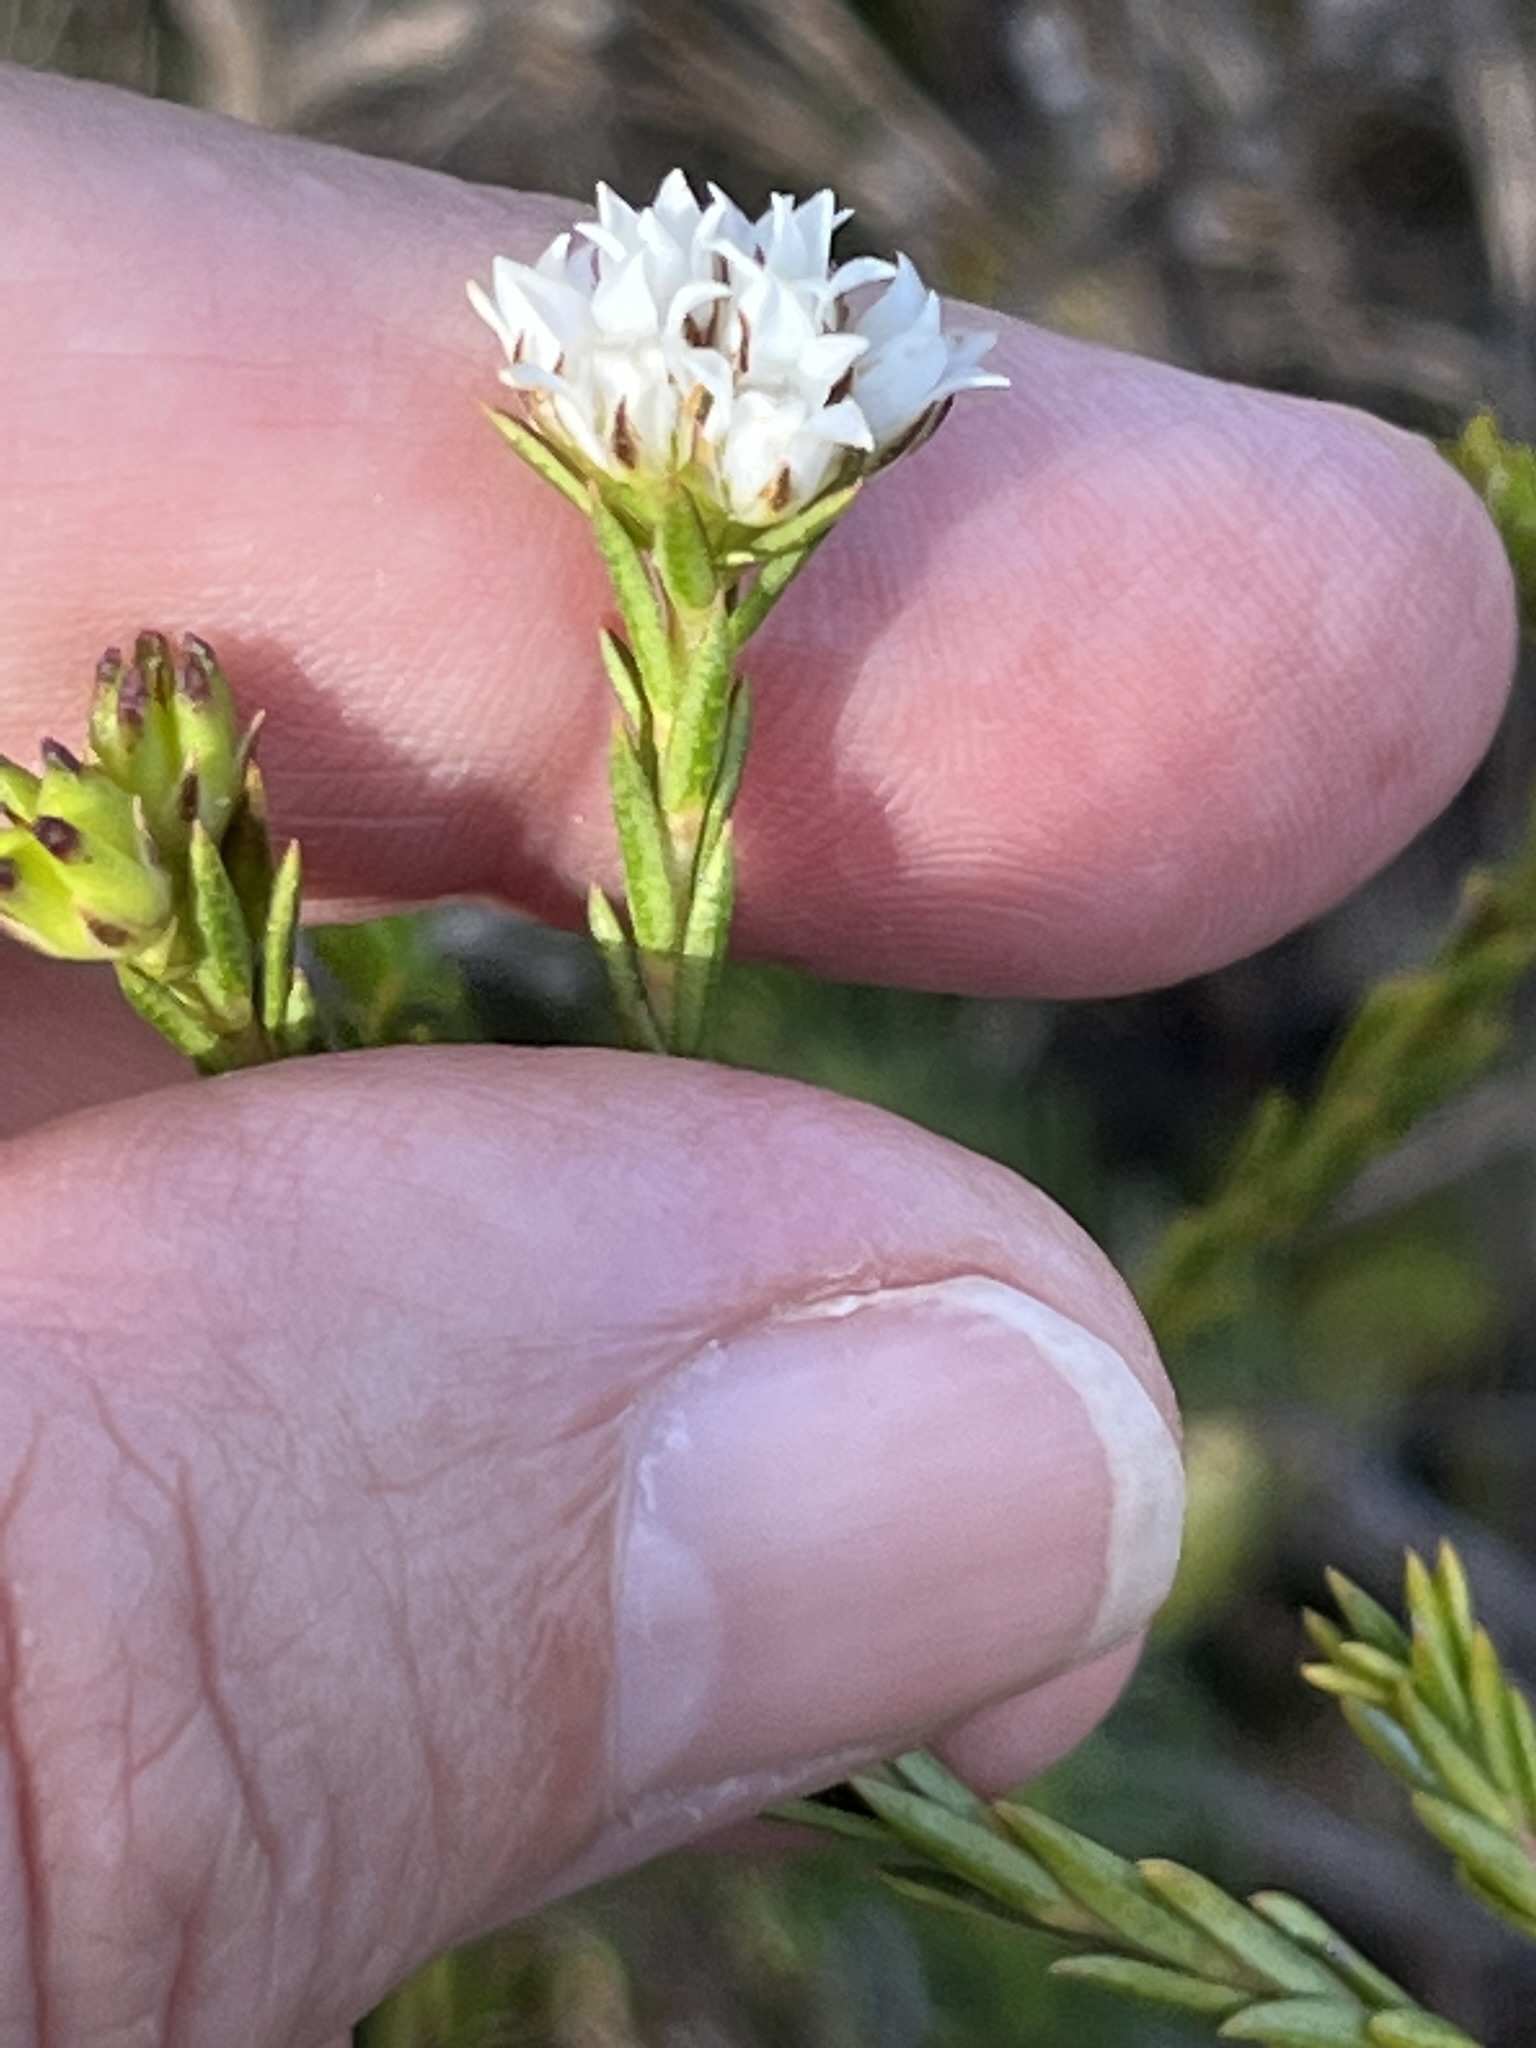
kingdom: Plantae
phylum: Tracheophyta
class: Magnoliopsida
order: Sapindales
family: Rutaceae
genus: Euchaetis
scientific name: Euchaetis diosmoides
